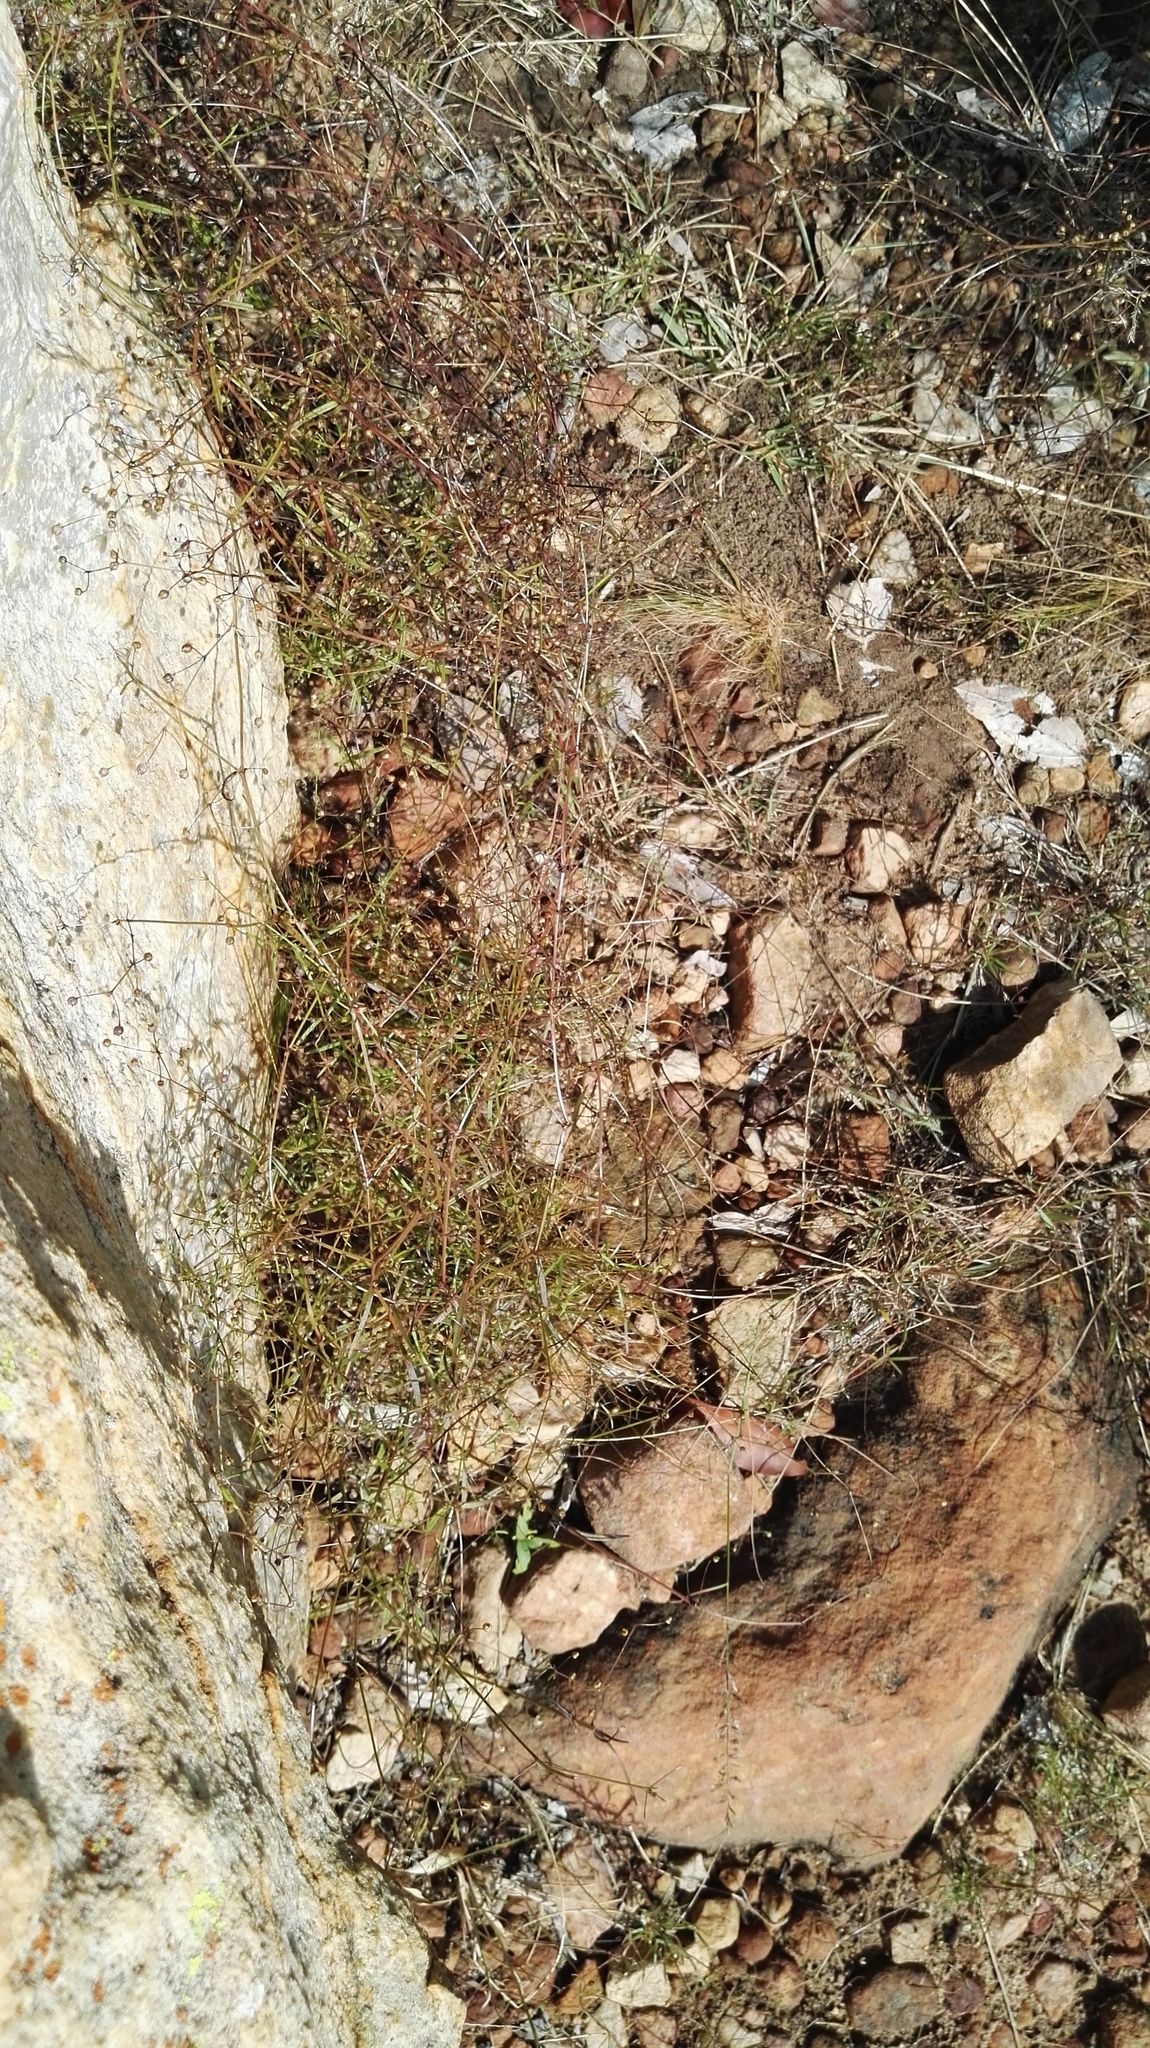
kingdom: Plantae
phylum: Tracheophyta
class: Magnoliopsida
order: Gentianales
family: Rubiaceae
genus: Oldenlandia
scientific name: Oldenlandia herbacea
